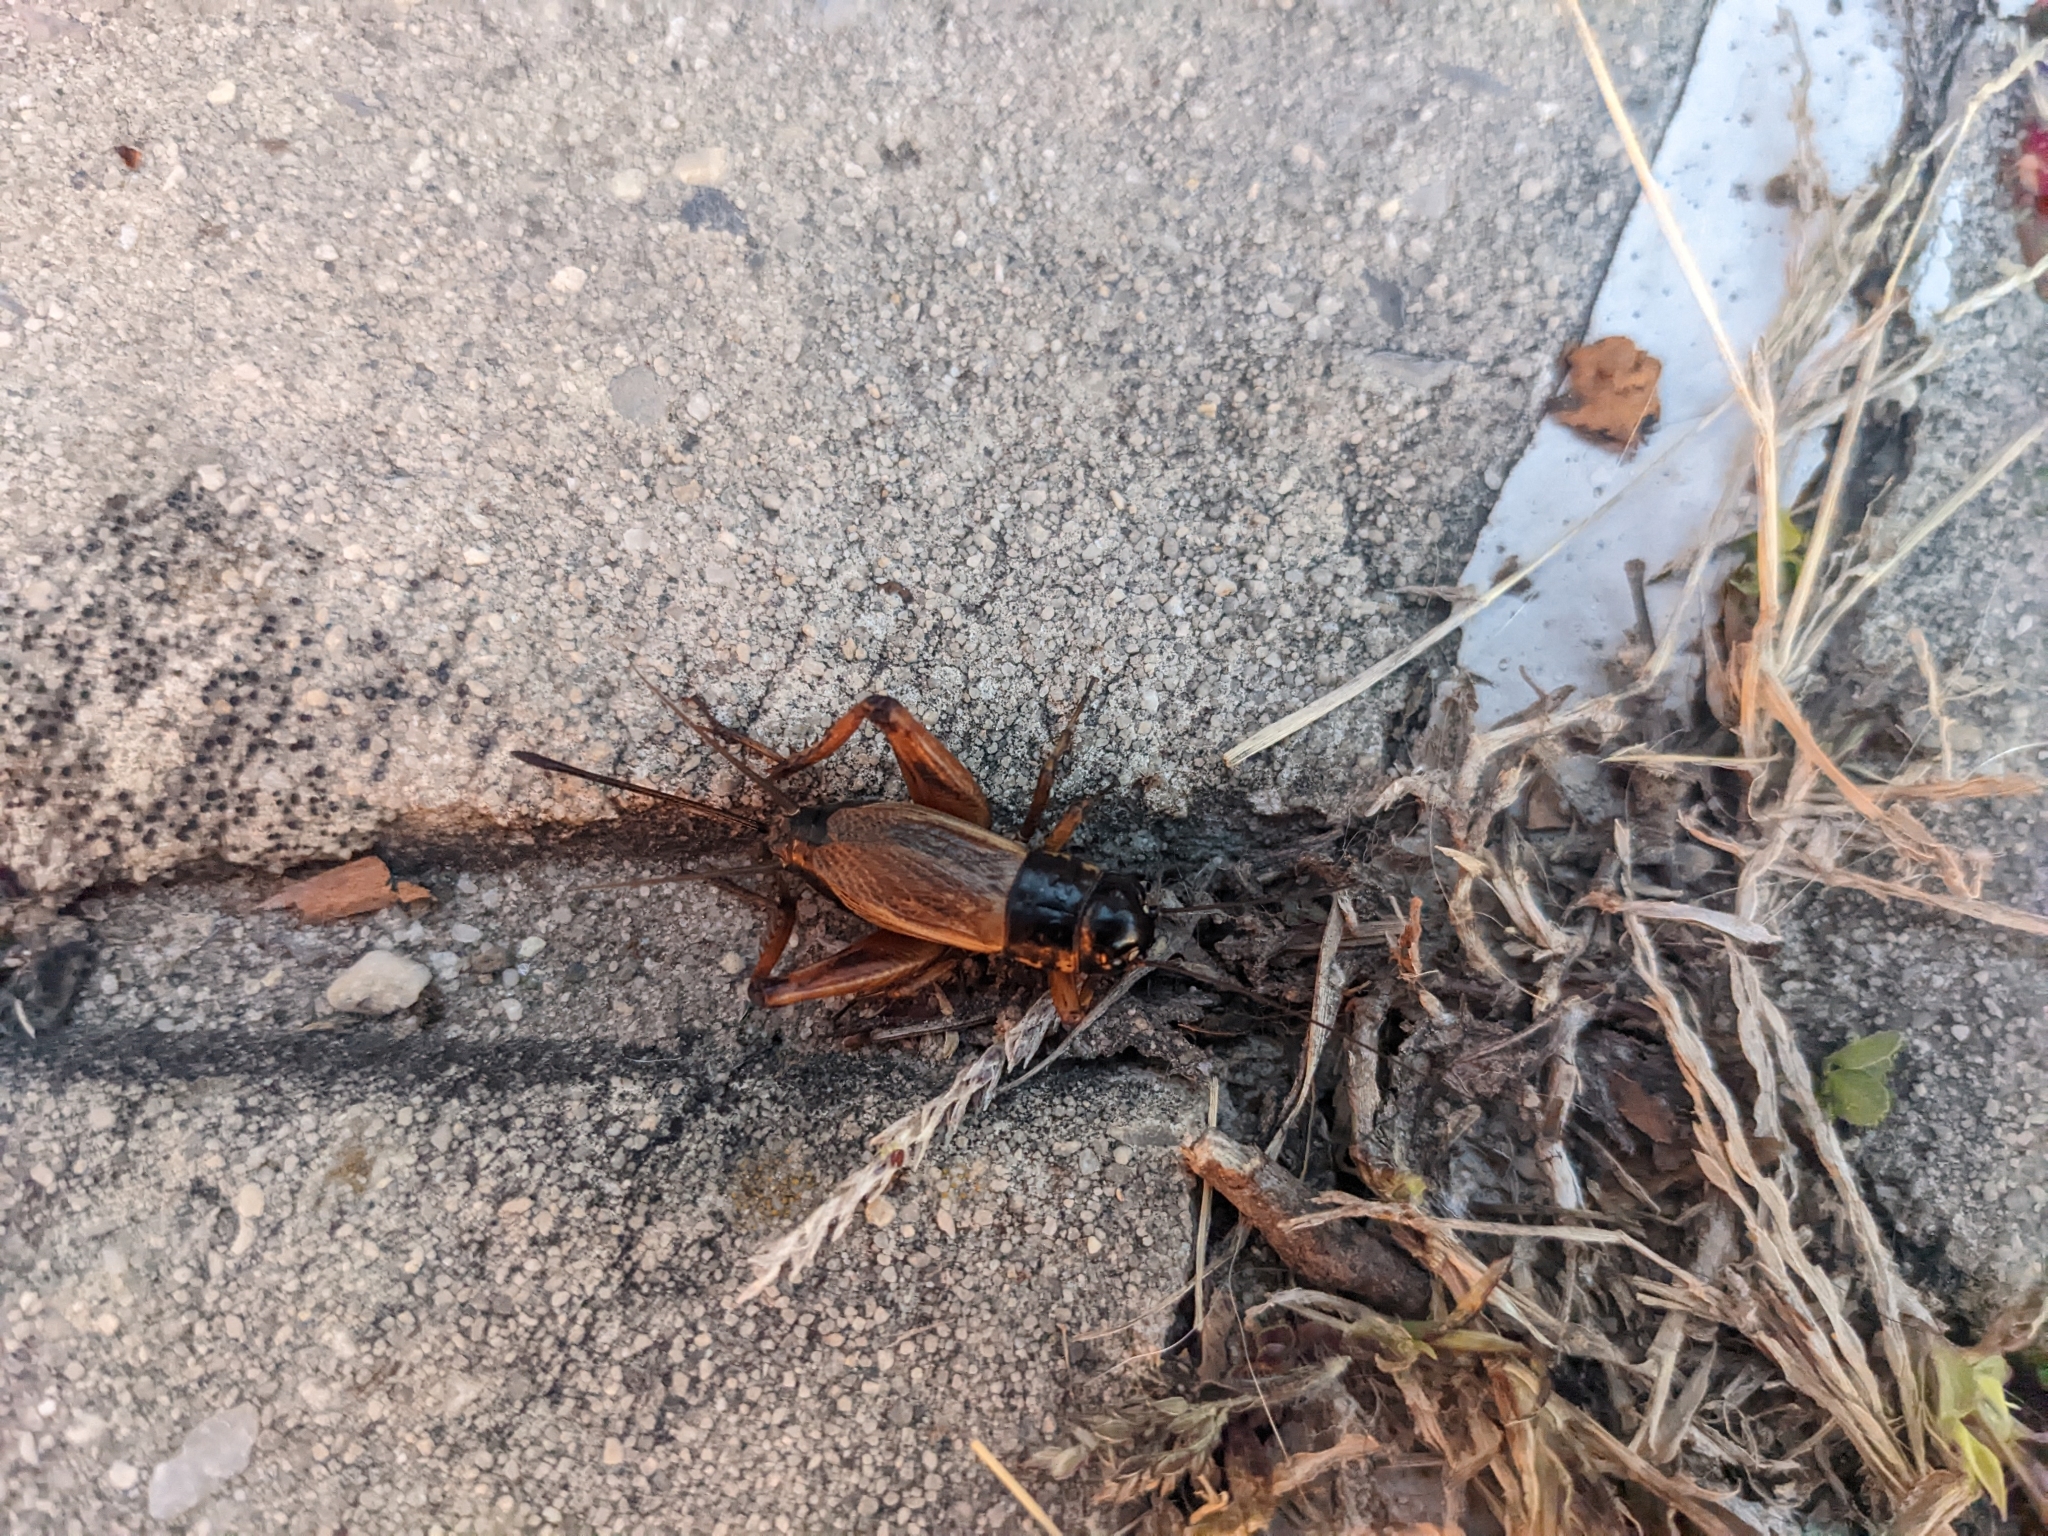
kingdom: Animalia
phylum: Arthropoda
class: Insecta
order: Orthoptera
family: Gryllidae
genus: Gryllus
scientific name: Gryllus pennsylvanicus
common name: Fall field cricket
